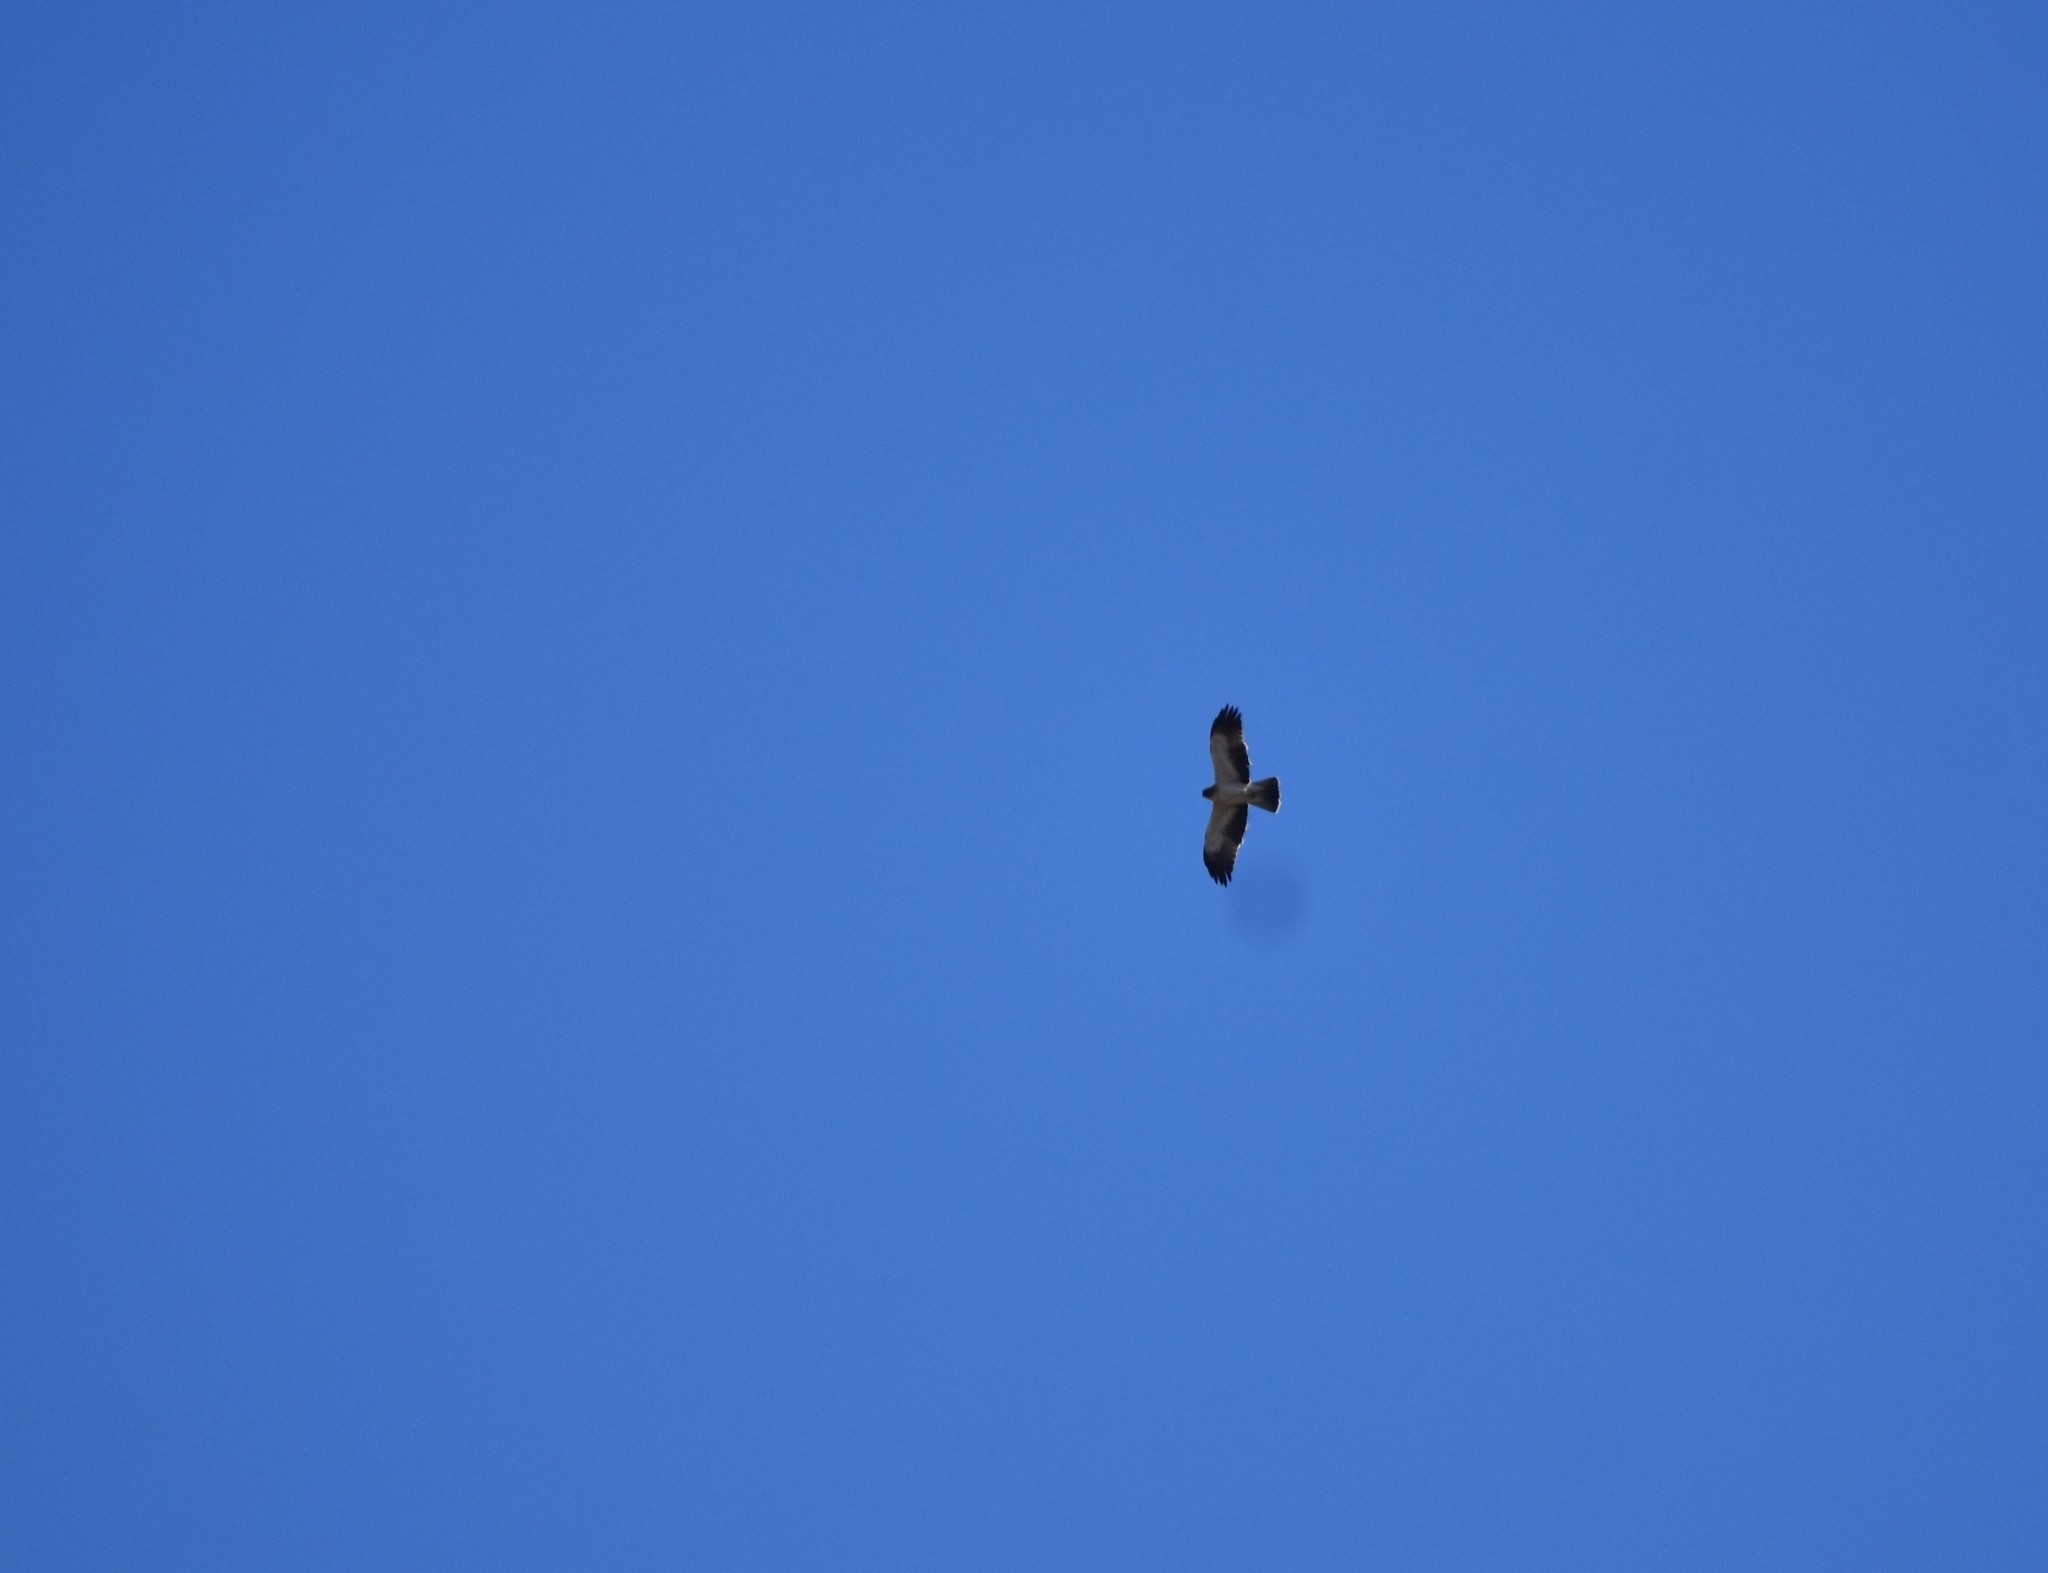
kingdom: Animalia
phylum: Chordata
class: Aves
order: Accipitriformes
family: Accipitridae
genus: Hieraaetus
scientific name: Hieraaetus pennatus
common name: Booted eagle
